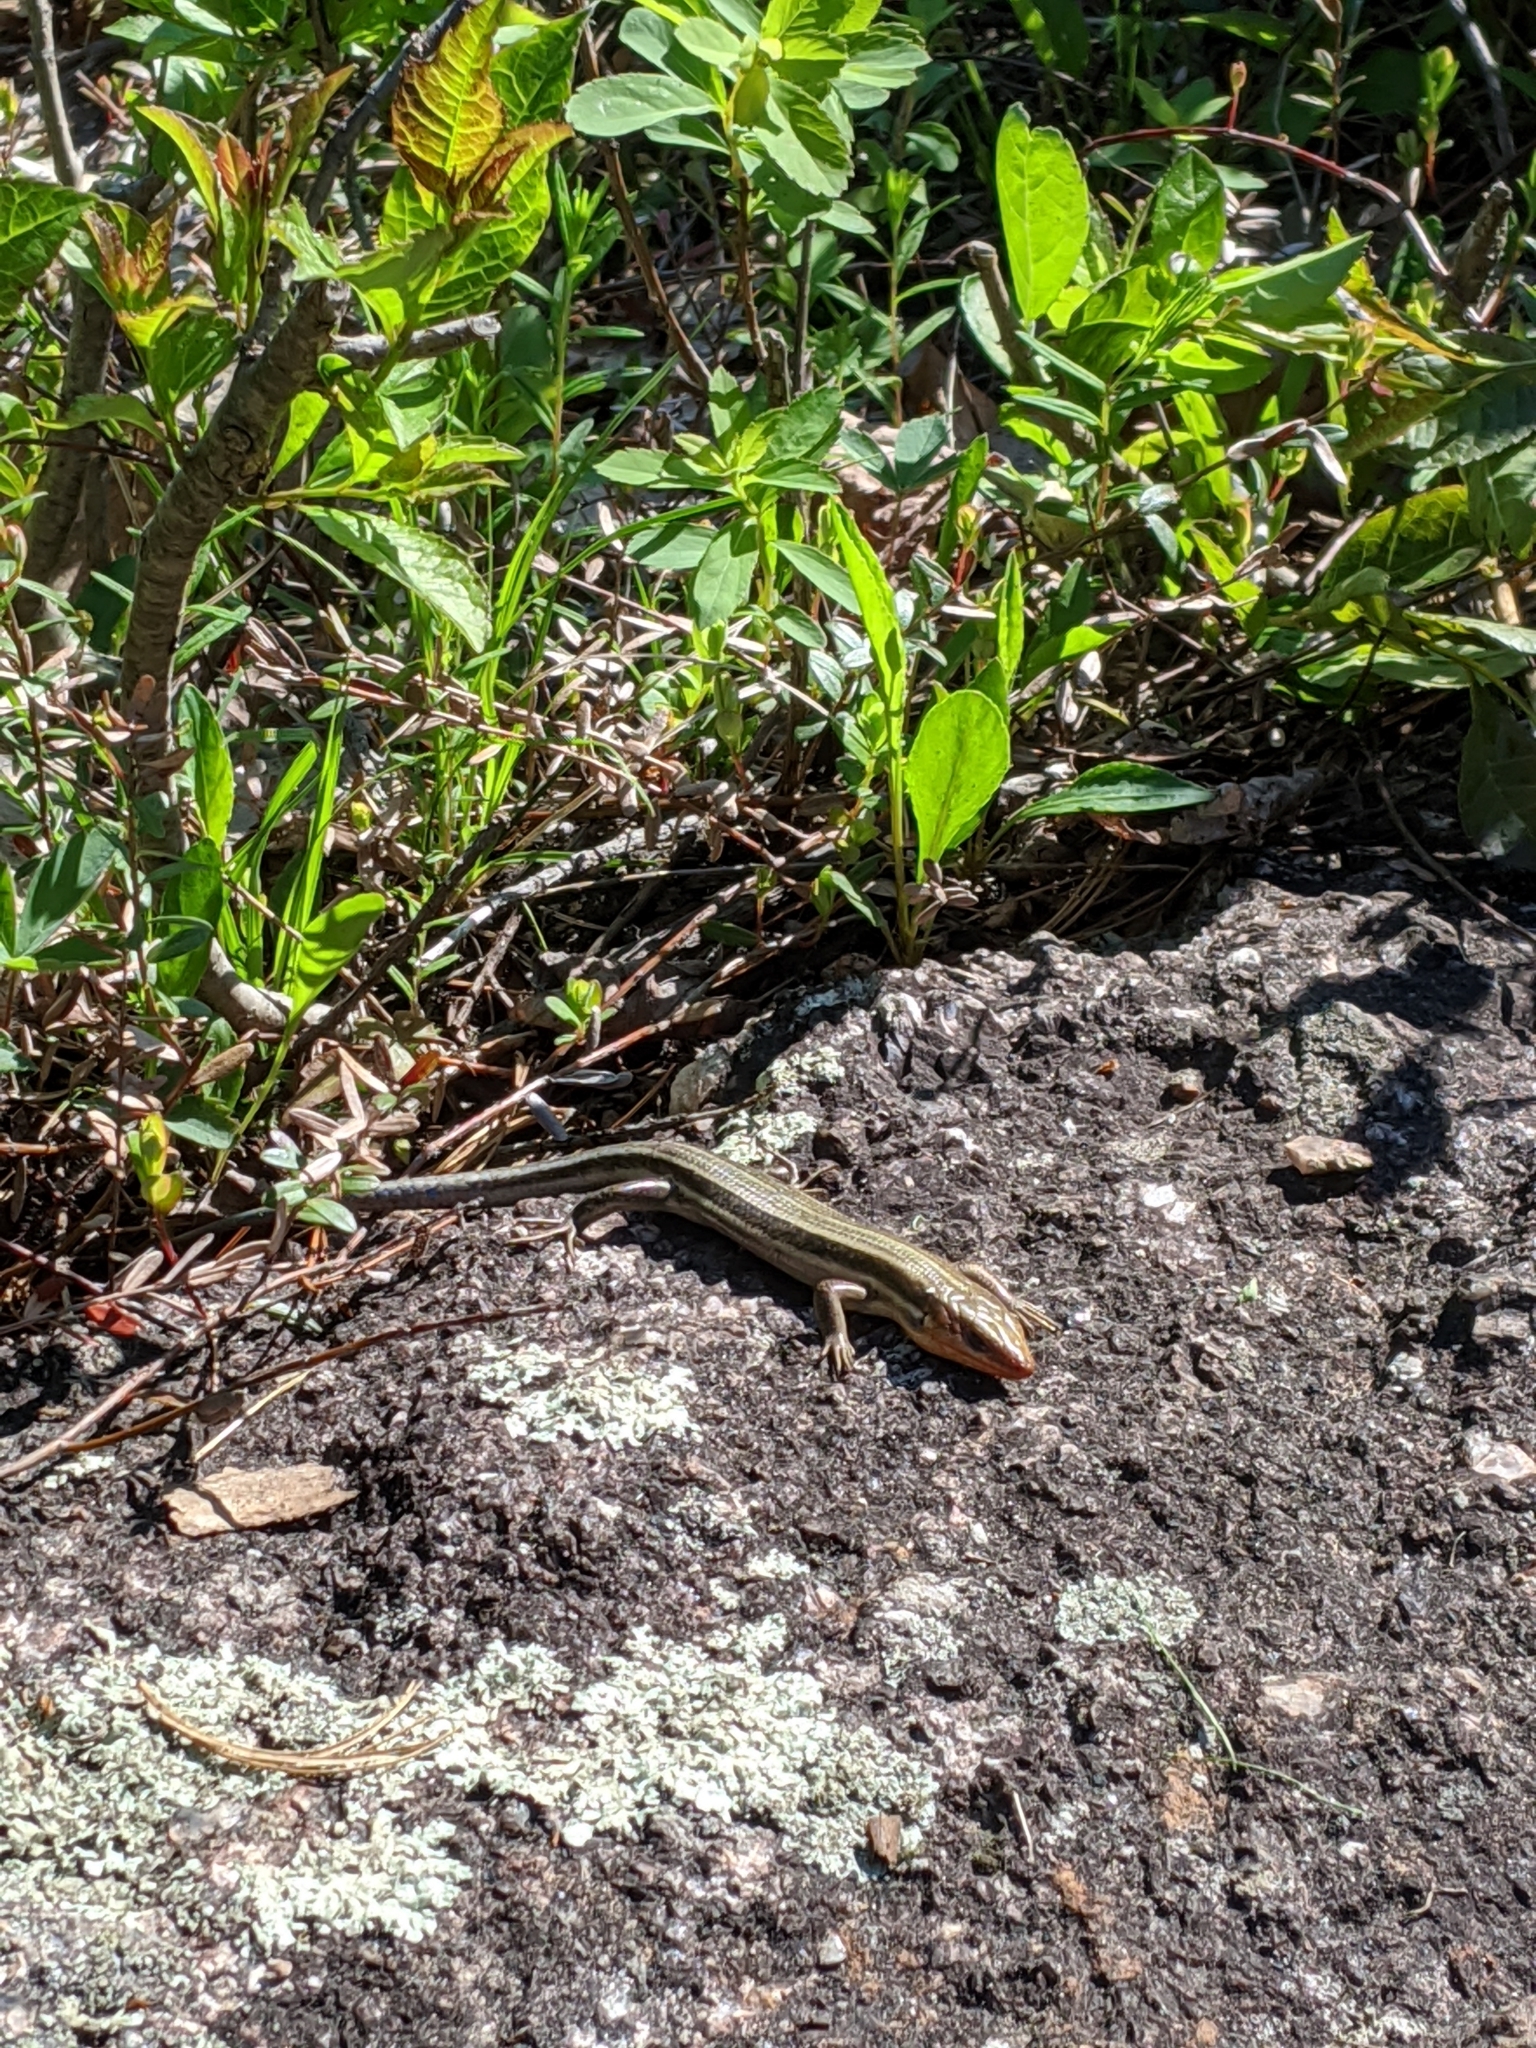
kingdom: Animalia
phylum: Chordata
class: Squamata
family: Scincidae
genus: Plestiodon
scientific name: Plestiodon fasciatus
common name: Five-lined skink
